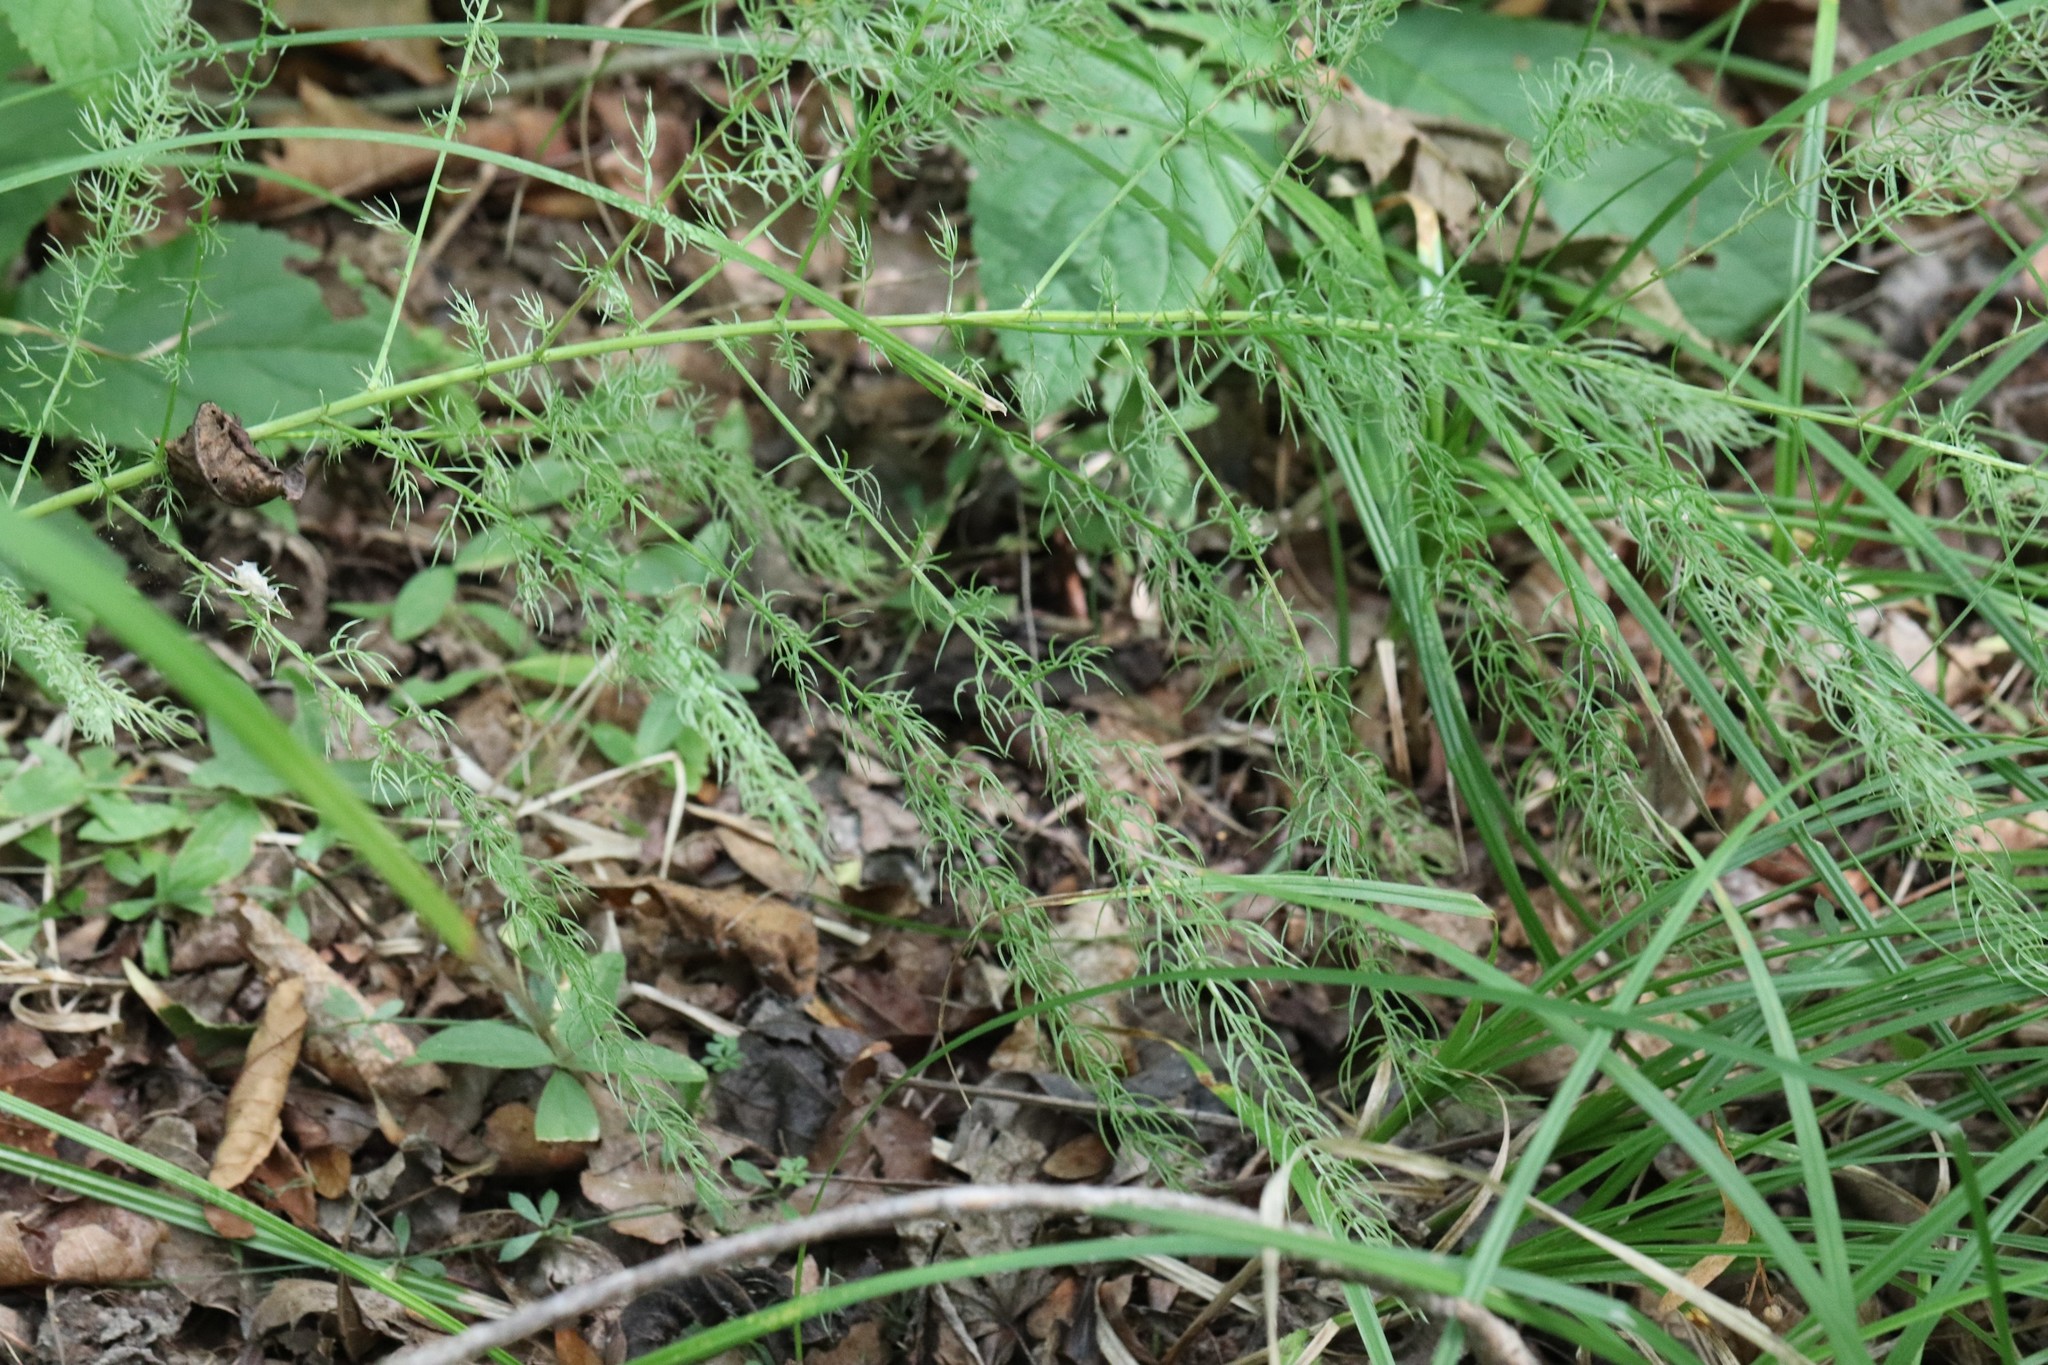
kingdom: Plantae
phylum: Tracheophyta
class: Liliopsida
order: Asparagales
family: Asparagaceae
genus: Asparagus
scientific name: Asparagus schoberioides
